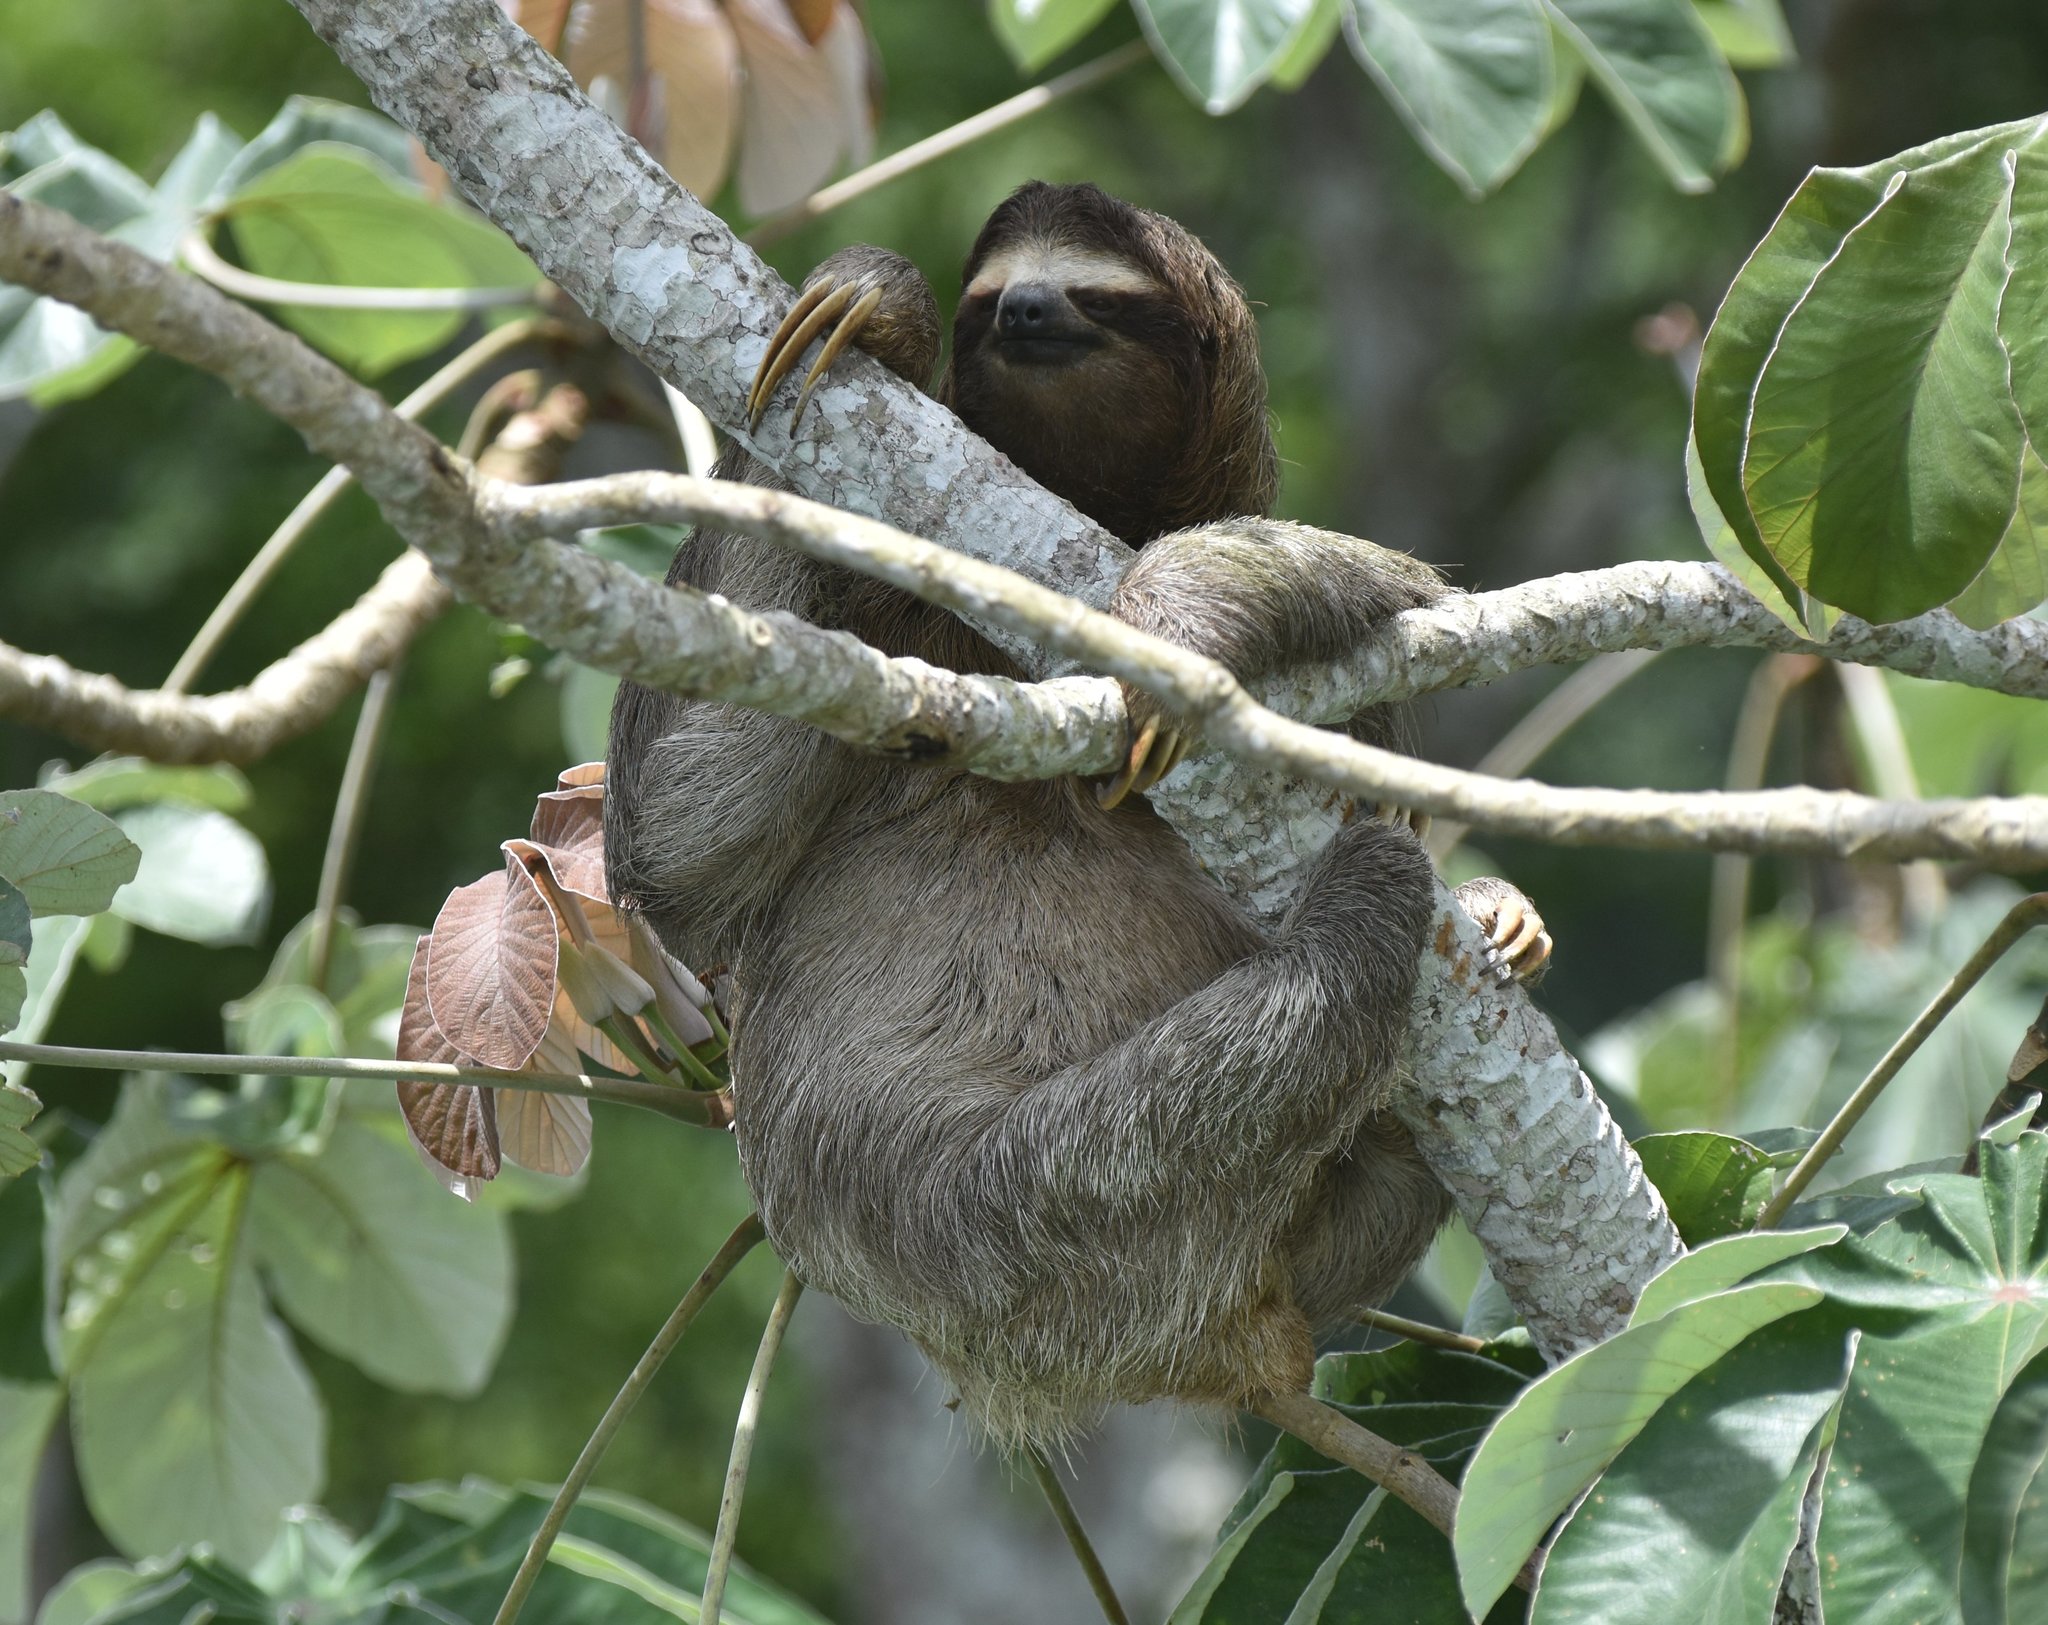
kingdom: Animalia
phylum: Chordata
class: Mammalia
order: Pilosa
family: Bradypodidae
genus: Bradypus
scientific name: Bradypus variegatus
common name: Brown-throated three-toed sloth
